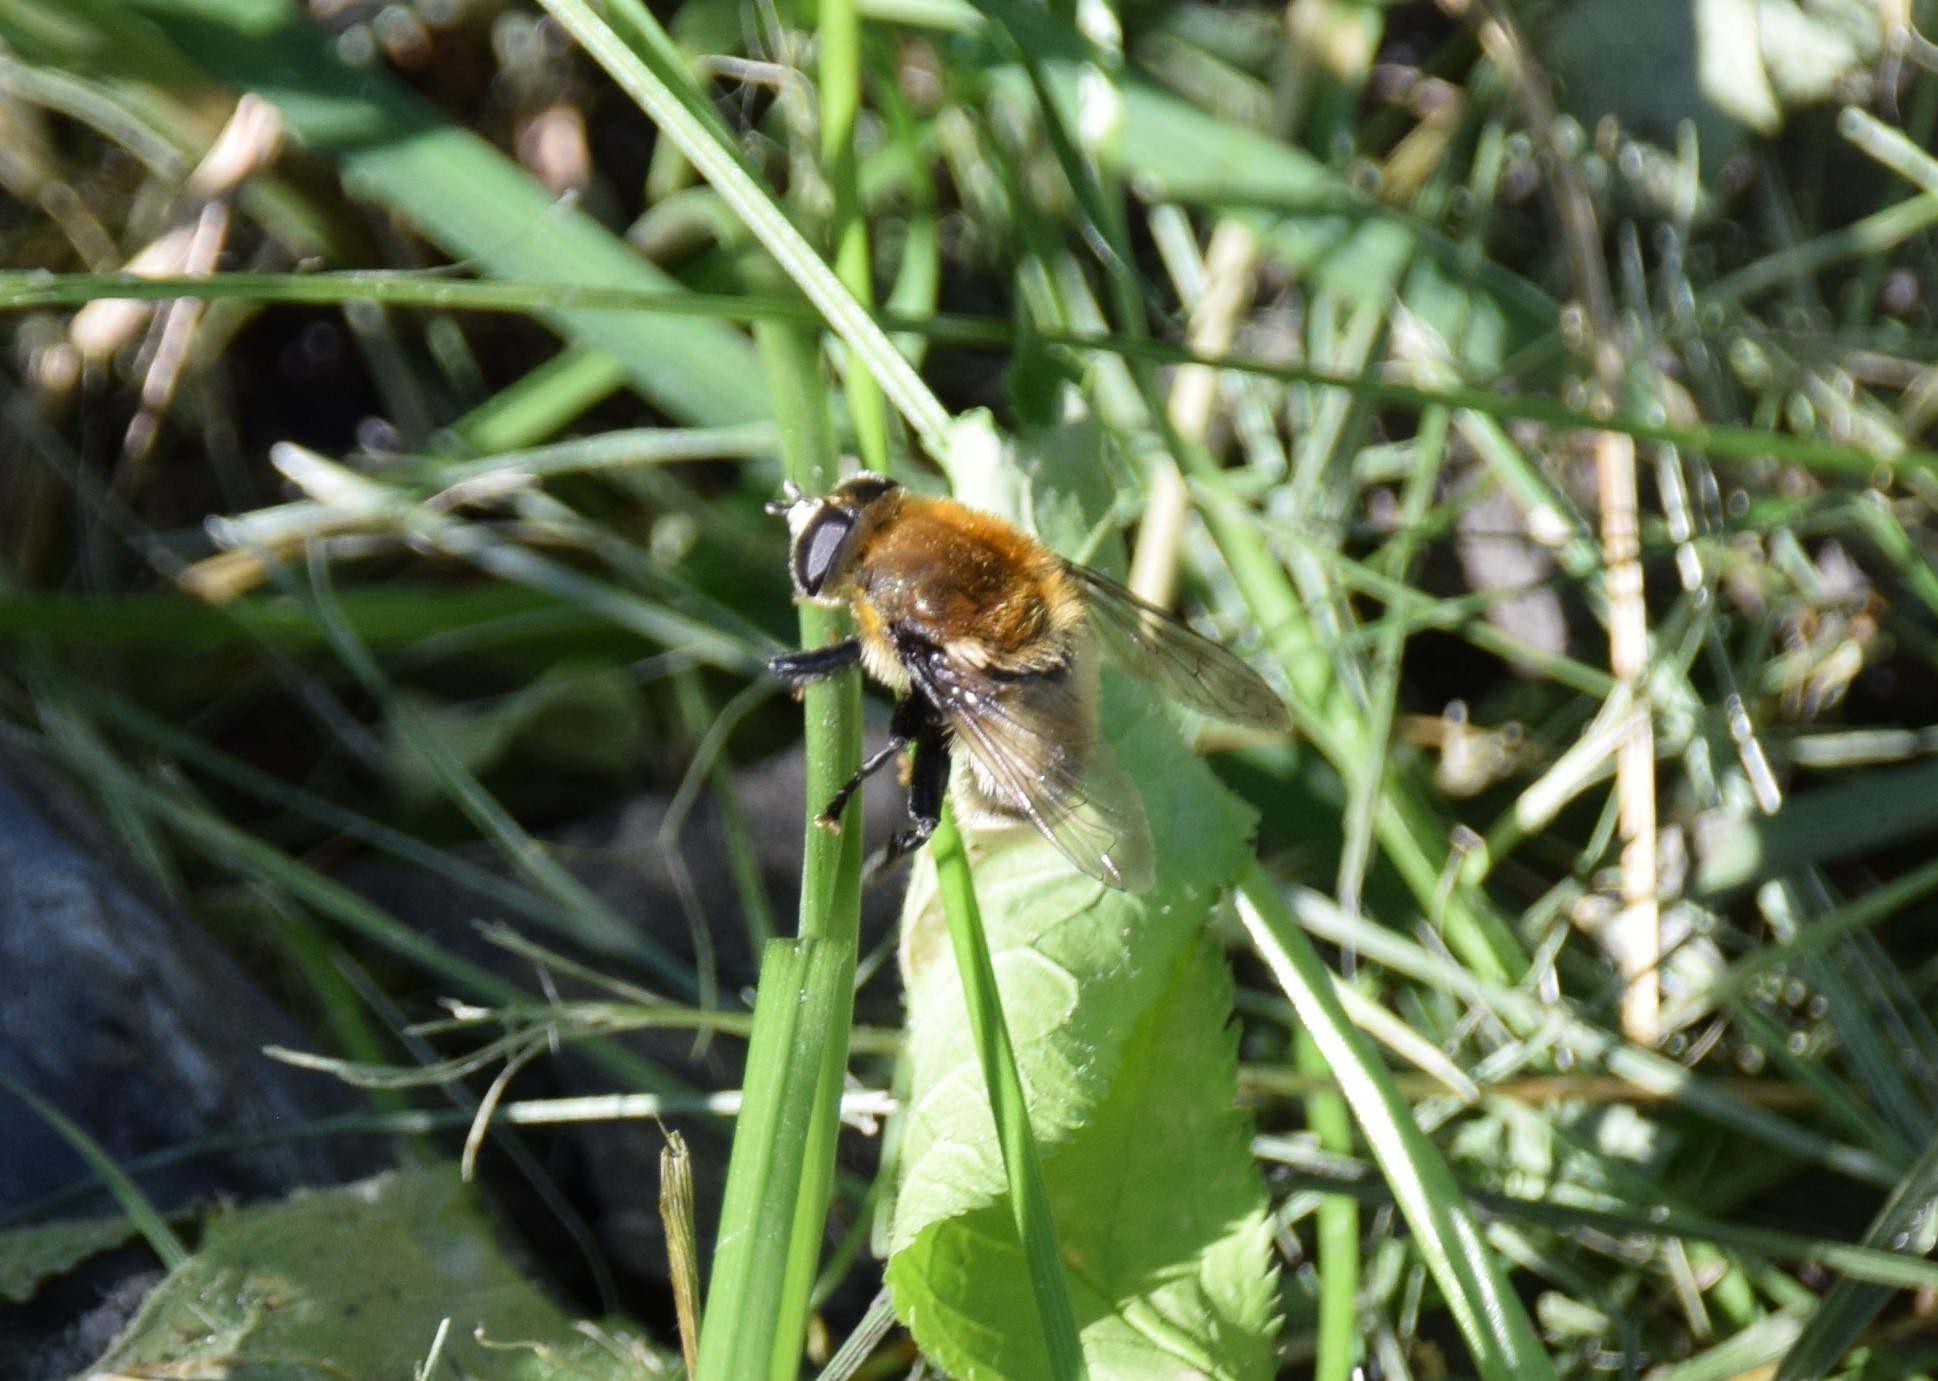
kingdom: Animalia
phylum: Arthropoda
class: Insecta
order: Diptera
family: Syrphidae
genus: Merodon
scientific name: Merodon equestris
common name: Greater bulb-fly
